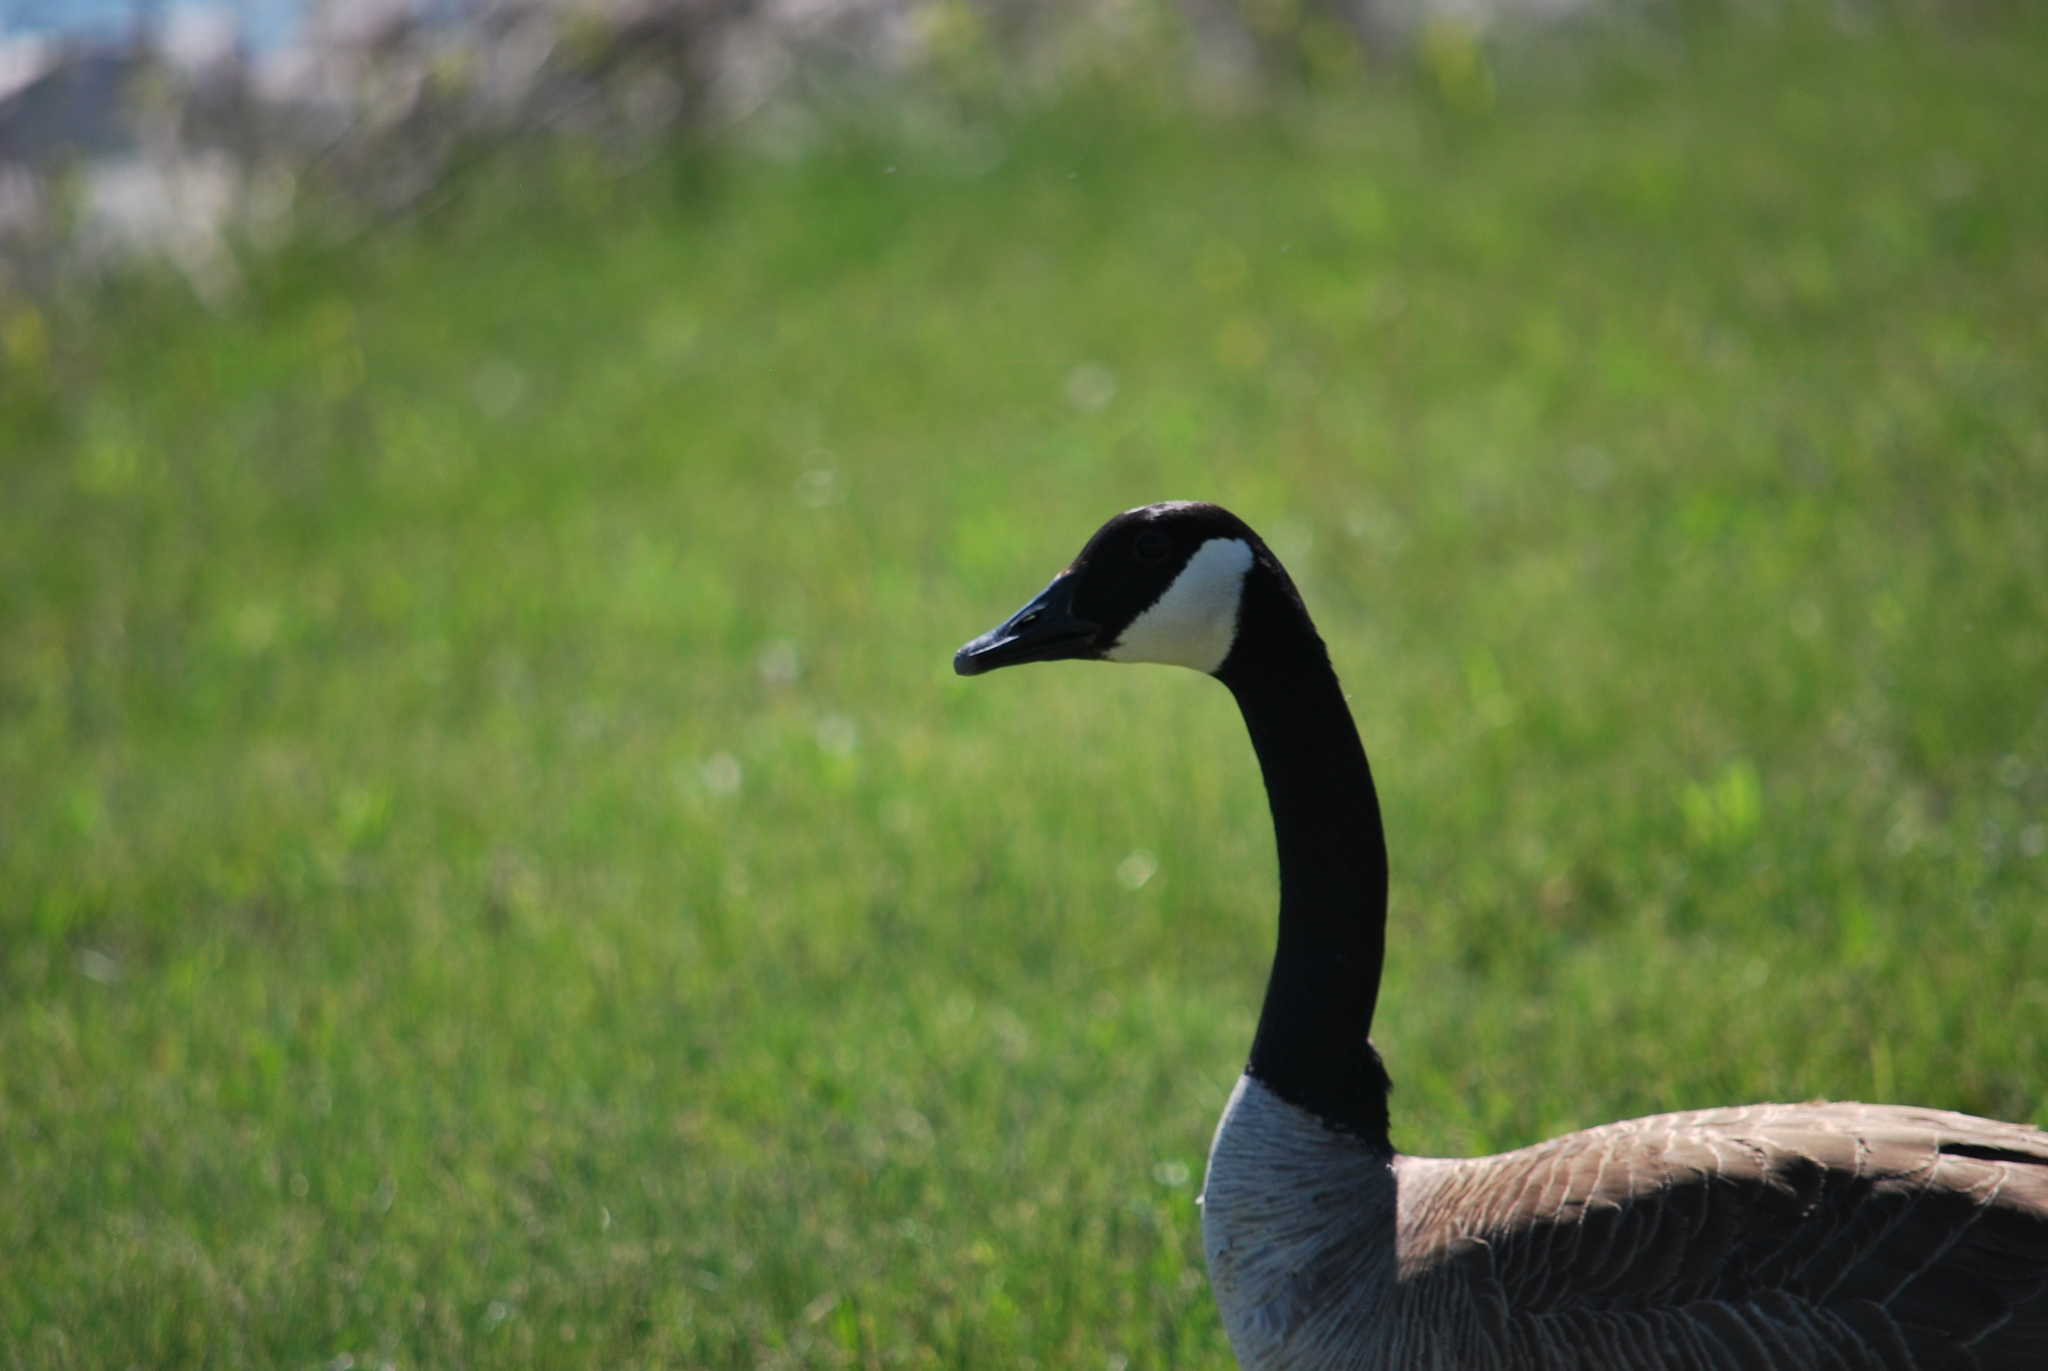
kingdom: Animalia
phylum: Chordata
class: Aves
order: Anseriformes
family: Anatidae
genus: Branta
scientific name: Branta canadensis
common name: Canada goose
